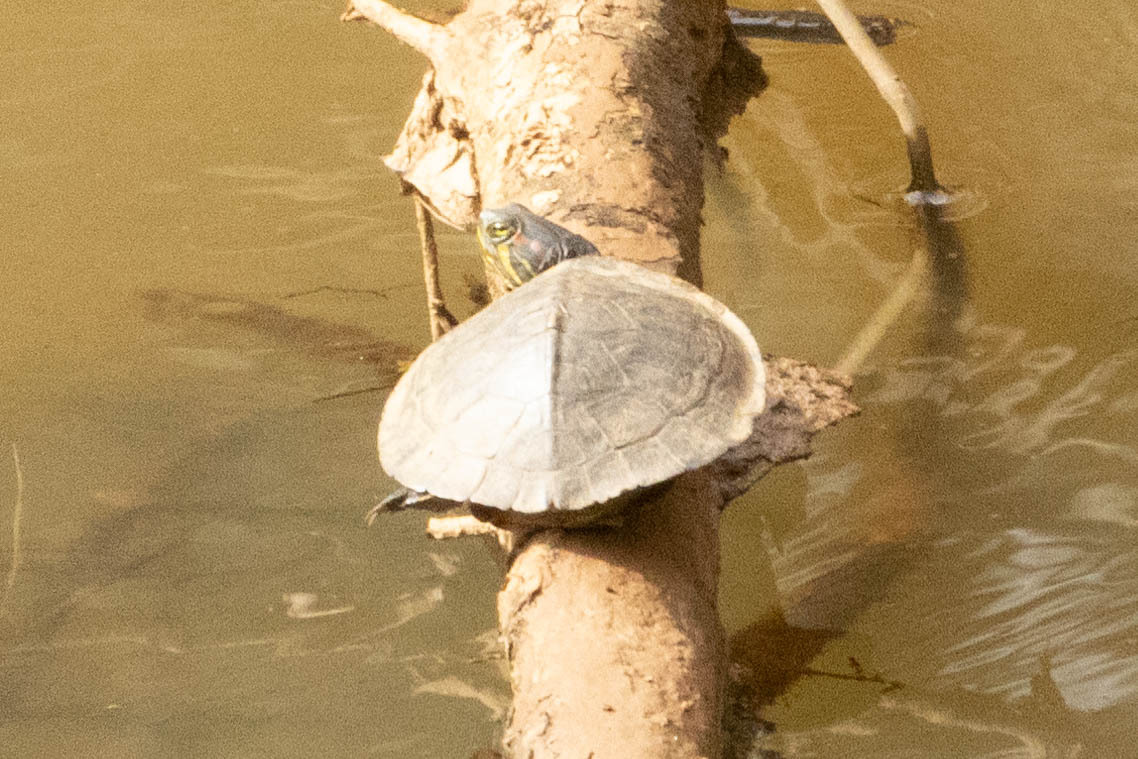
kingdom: Animalia
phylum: Chordata
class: Testudines
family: Emydidae
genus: Trachemys
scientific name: Trachemys scripta
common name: Slider
